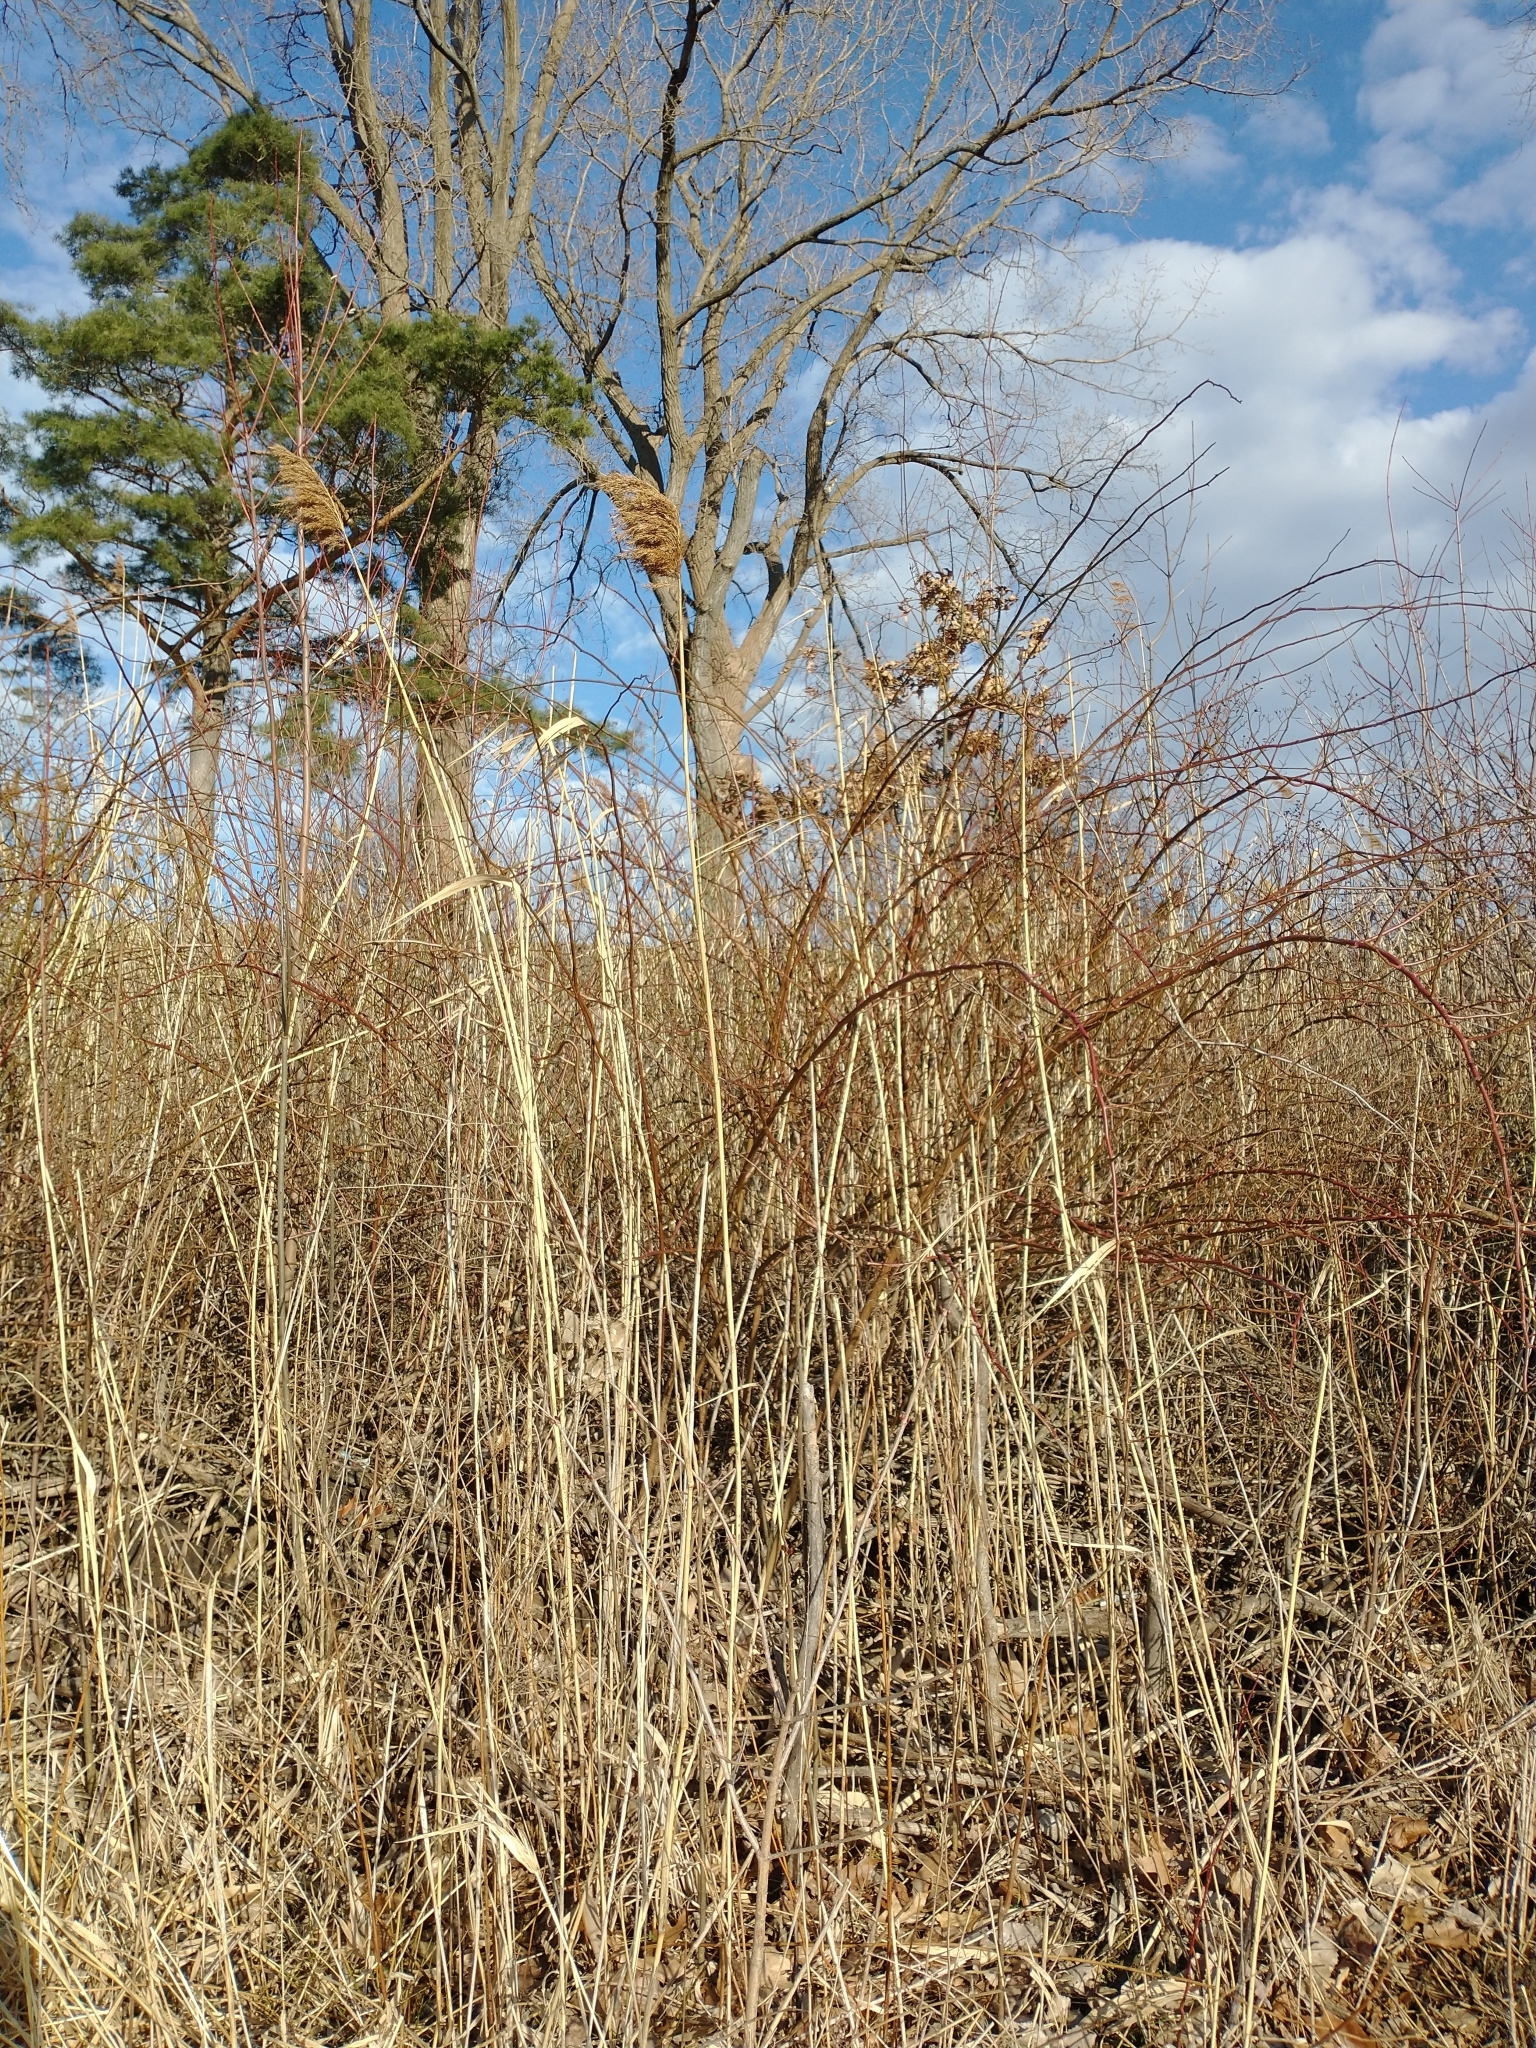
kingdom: Plantae
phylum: Tracheophyta
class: Liliopsida
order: Poales
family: Poaceae
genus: Phragmites
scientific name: Phragmites australis
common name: Common reed
